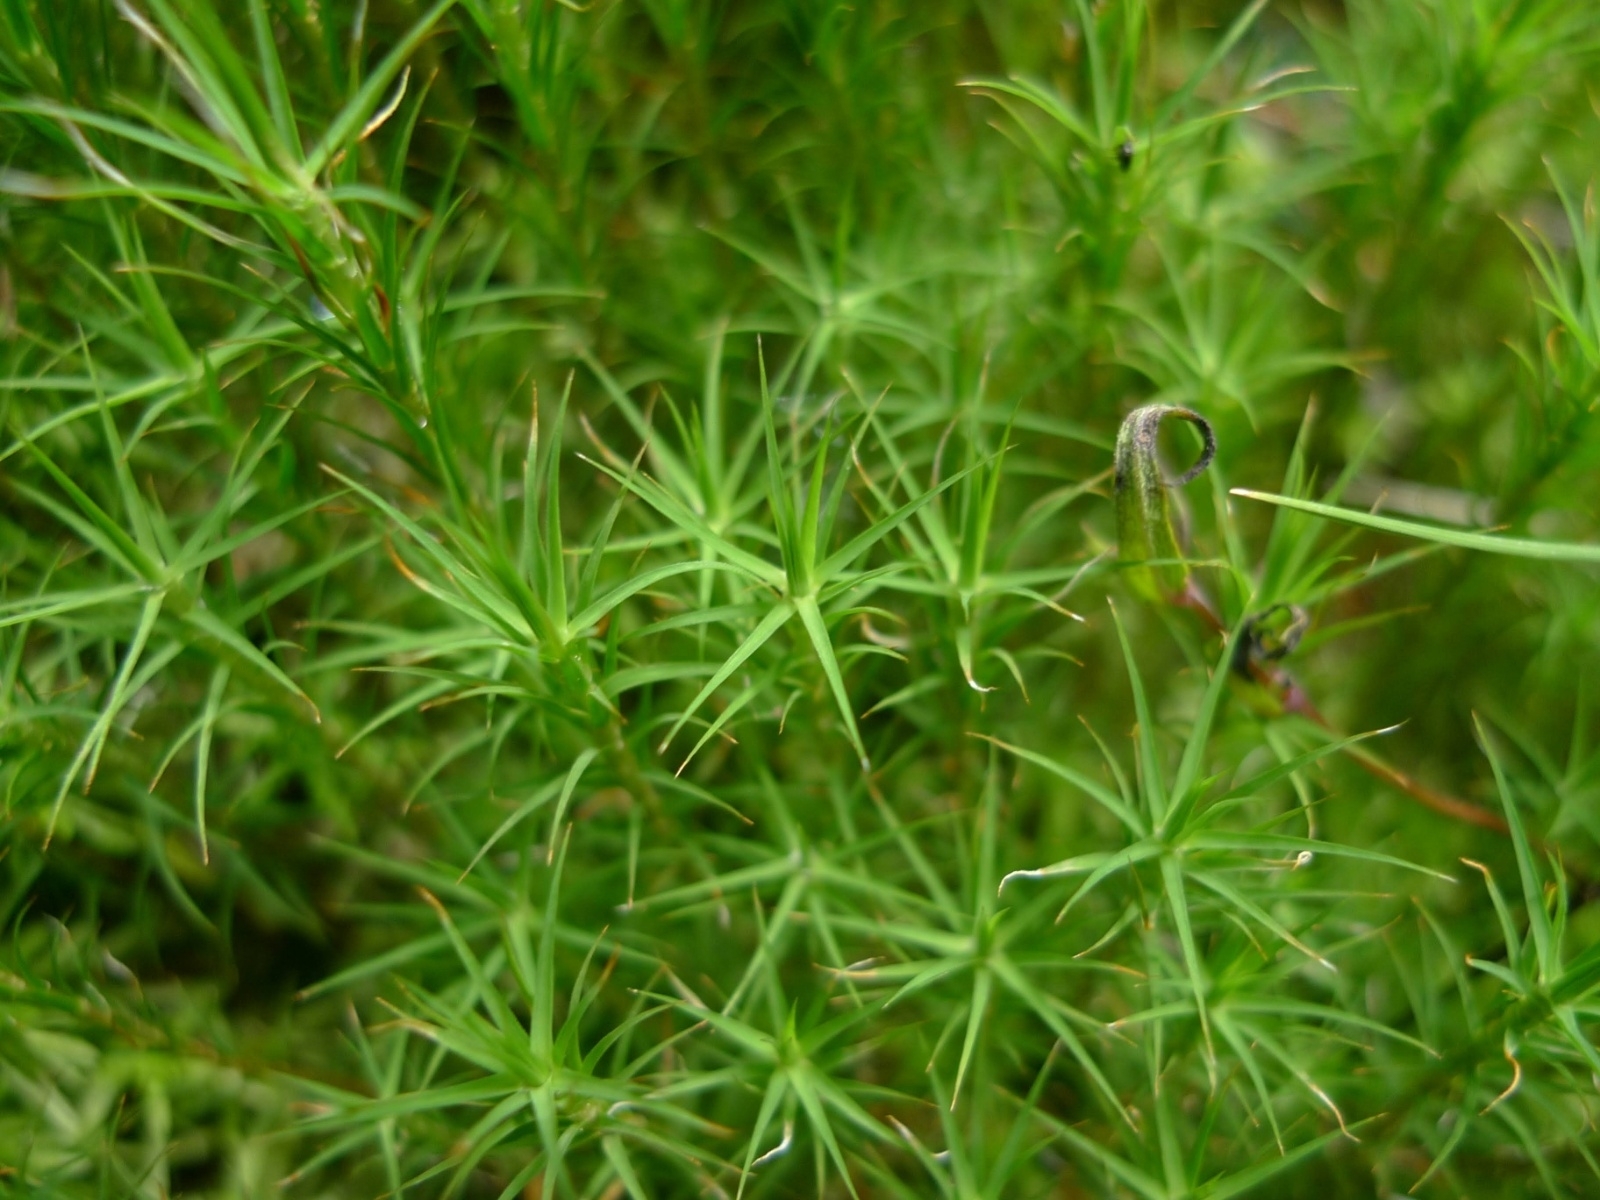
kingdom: Plantae
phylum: Bryophyta
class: Polytrichopsida
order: Polytrichales
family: Polytrichaceae
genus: Polytrichum
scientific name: Polytrichum commune
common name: Common haircap
